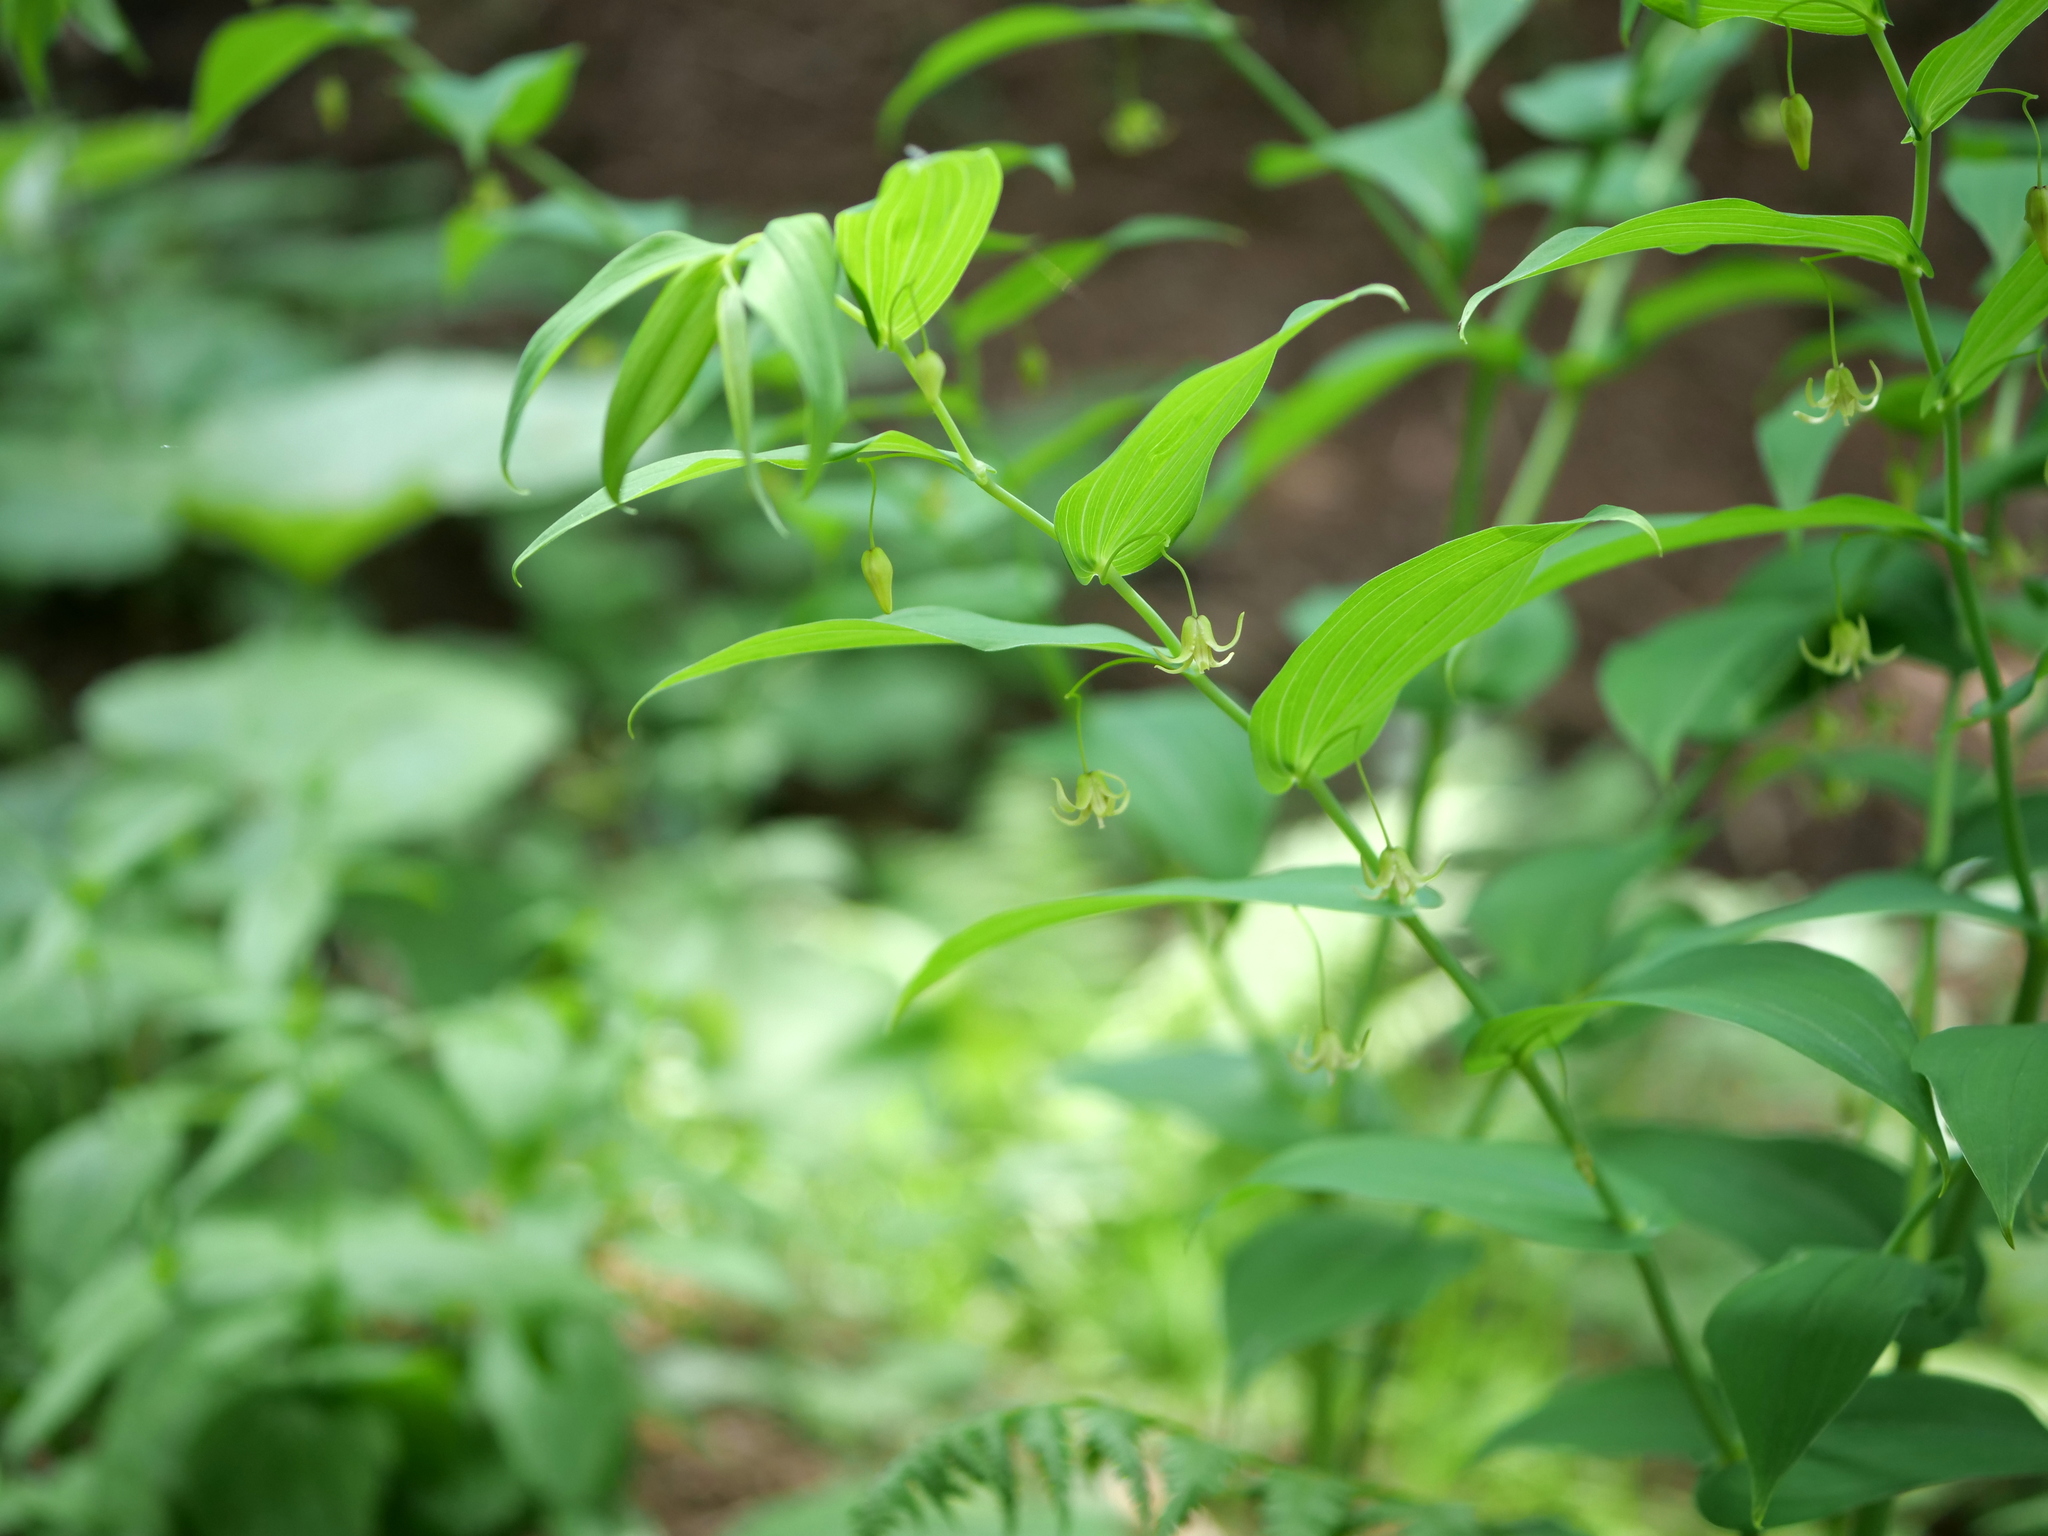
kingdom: Plantae
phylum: Tracheophyta
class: Liliopsida
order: Liliales
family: Liliaceae
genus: Streptopus
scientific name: Streptopus amplexifolius
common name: Clasp twisted stalk
